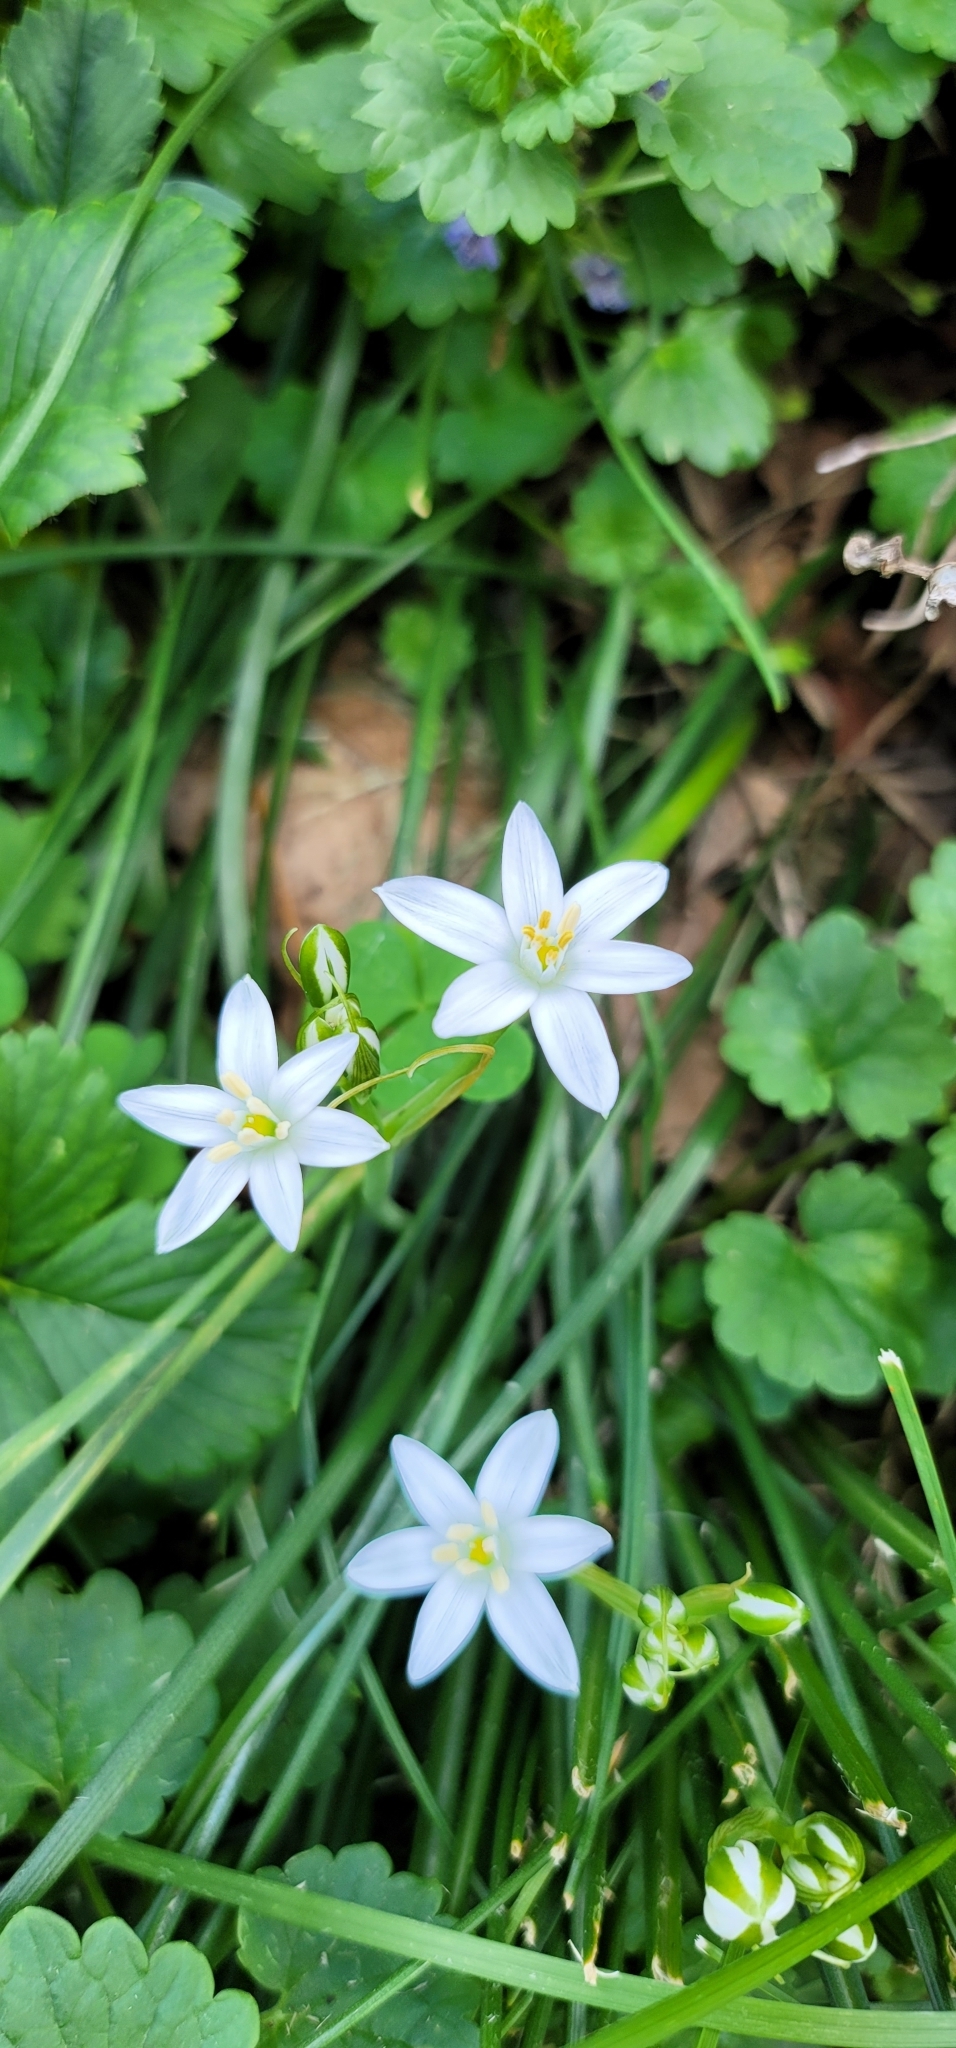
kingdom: Plantae
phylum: Tracheophyta
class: Liliopsida
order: Asparagales
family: Asparagaceae
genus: Ornithogalum
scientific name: Ornithogalum umbellatum
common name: Garden star-of-bethlehem
